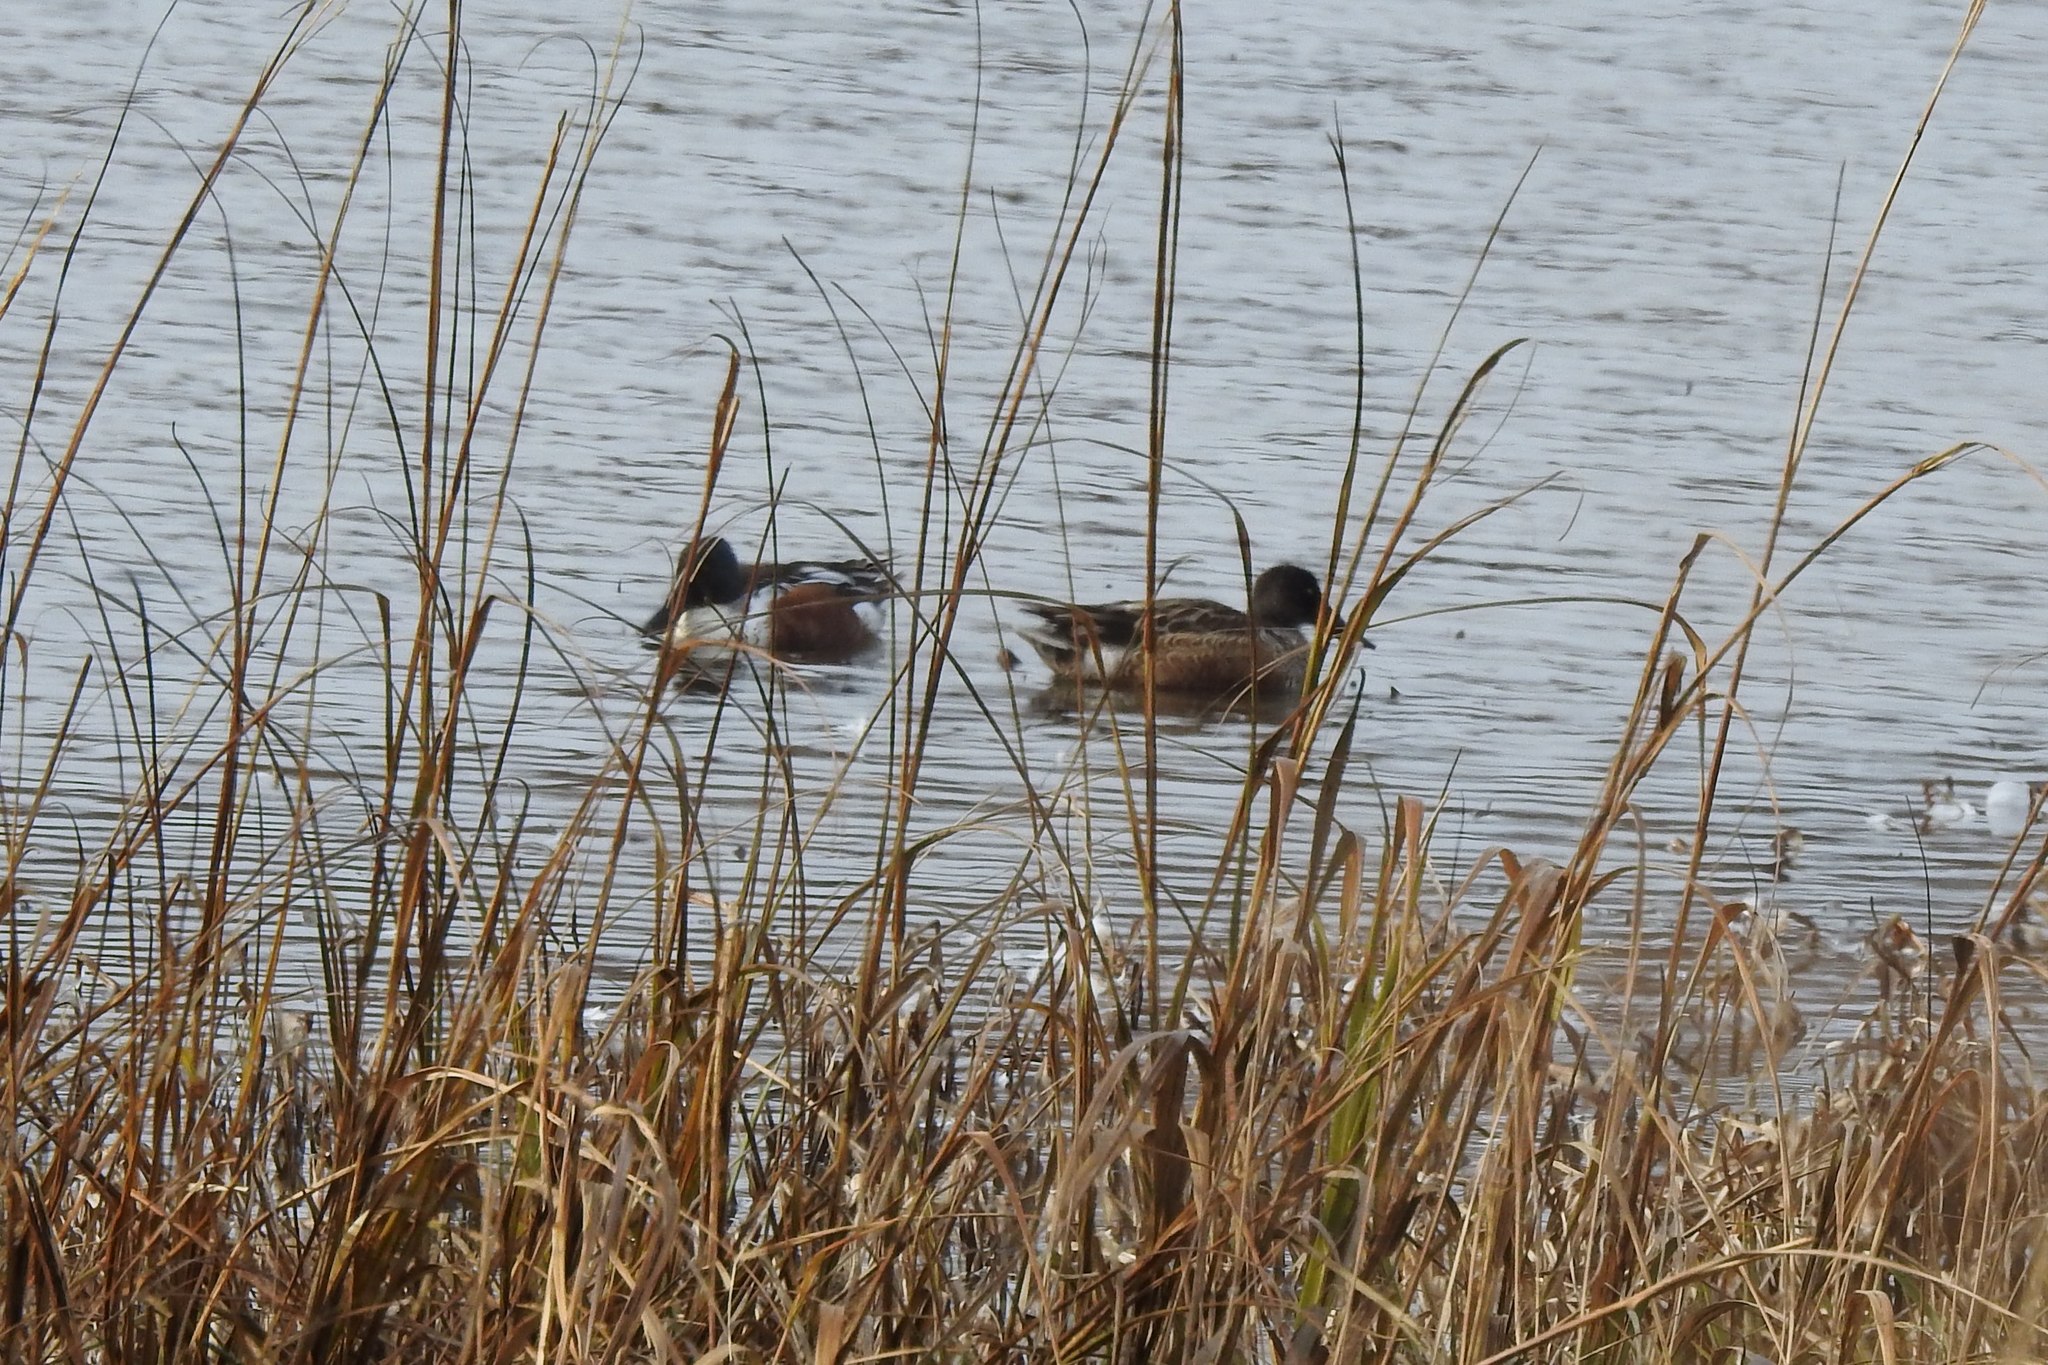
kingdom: Animalia
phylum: Chordata
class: Aves
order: Anseriformes
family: Anatidae
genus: Spatula
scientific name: Spatula clypeata
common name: Northern shoveler
